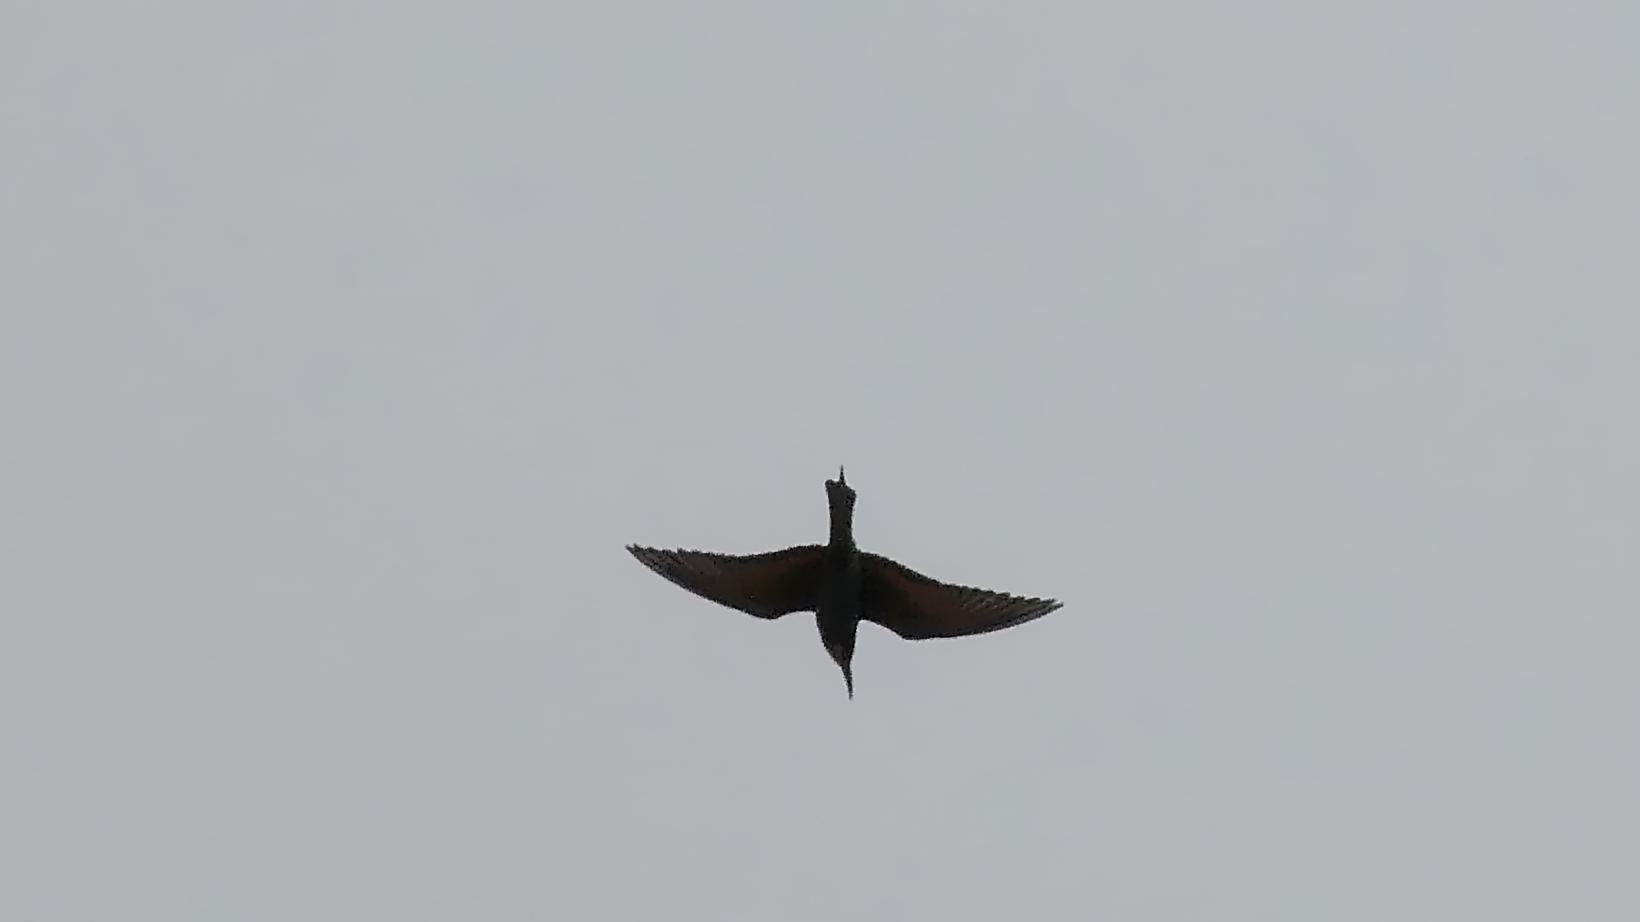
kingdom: Animalia
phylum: Chordata
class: Aves
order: Coraciiformes
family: Meropidae
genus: Merops
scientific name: Merops apiaster
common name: European bee-eater
